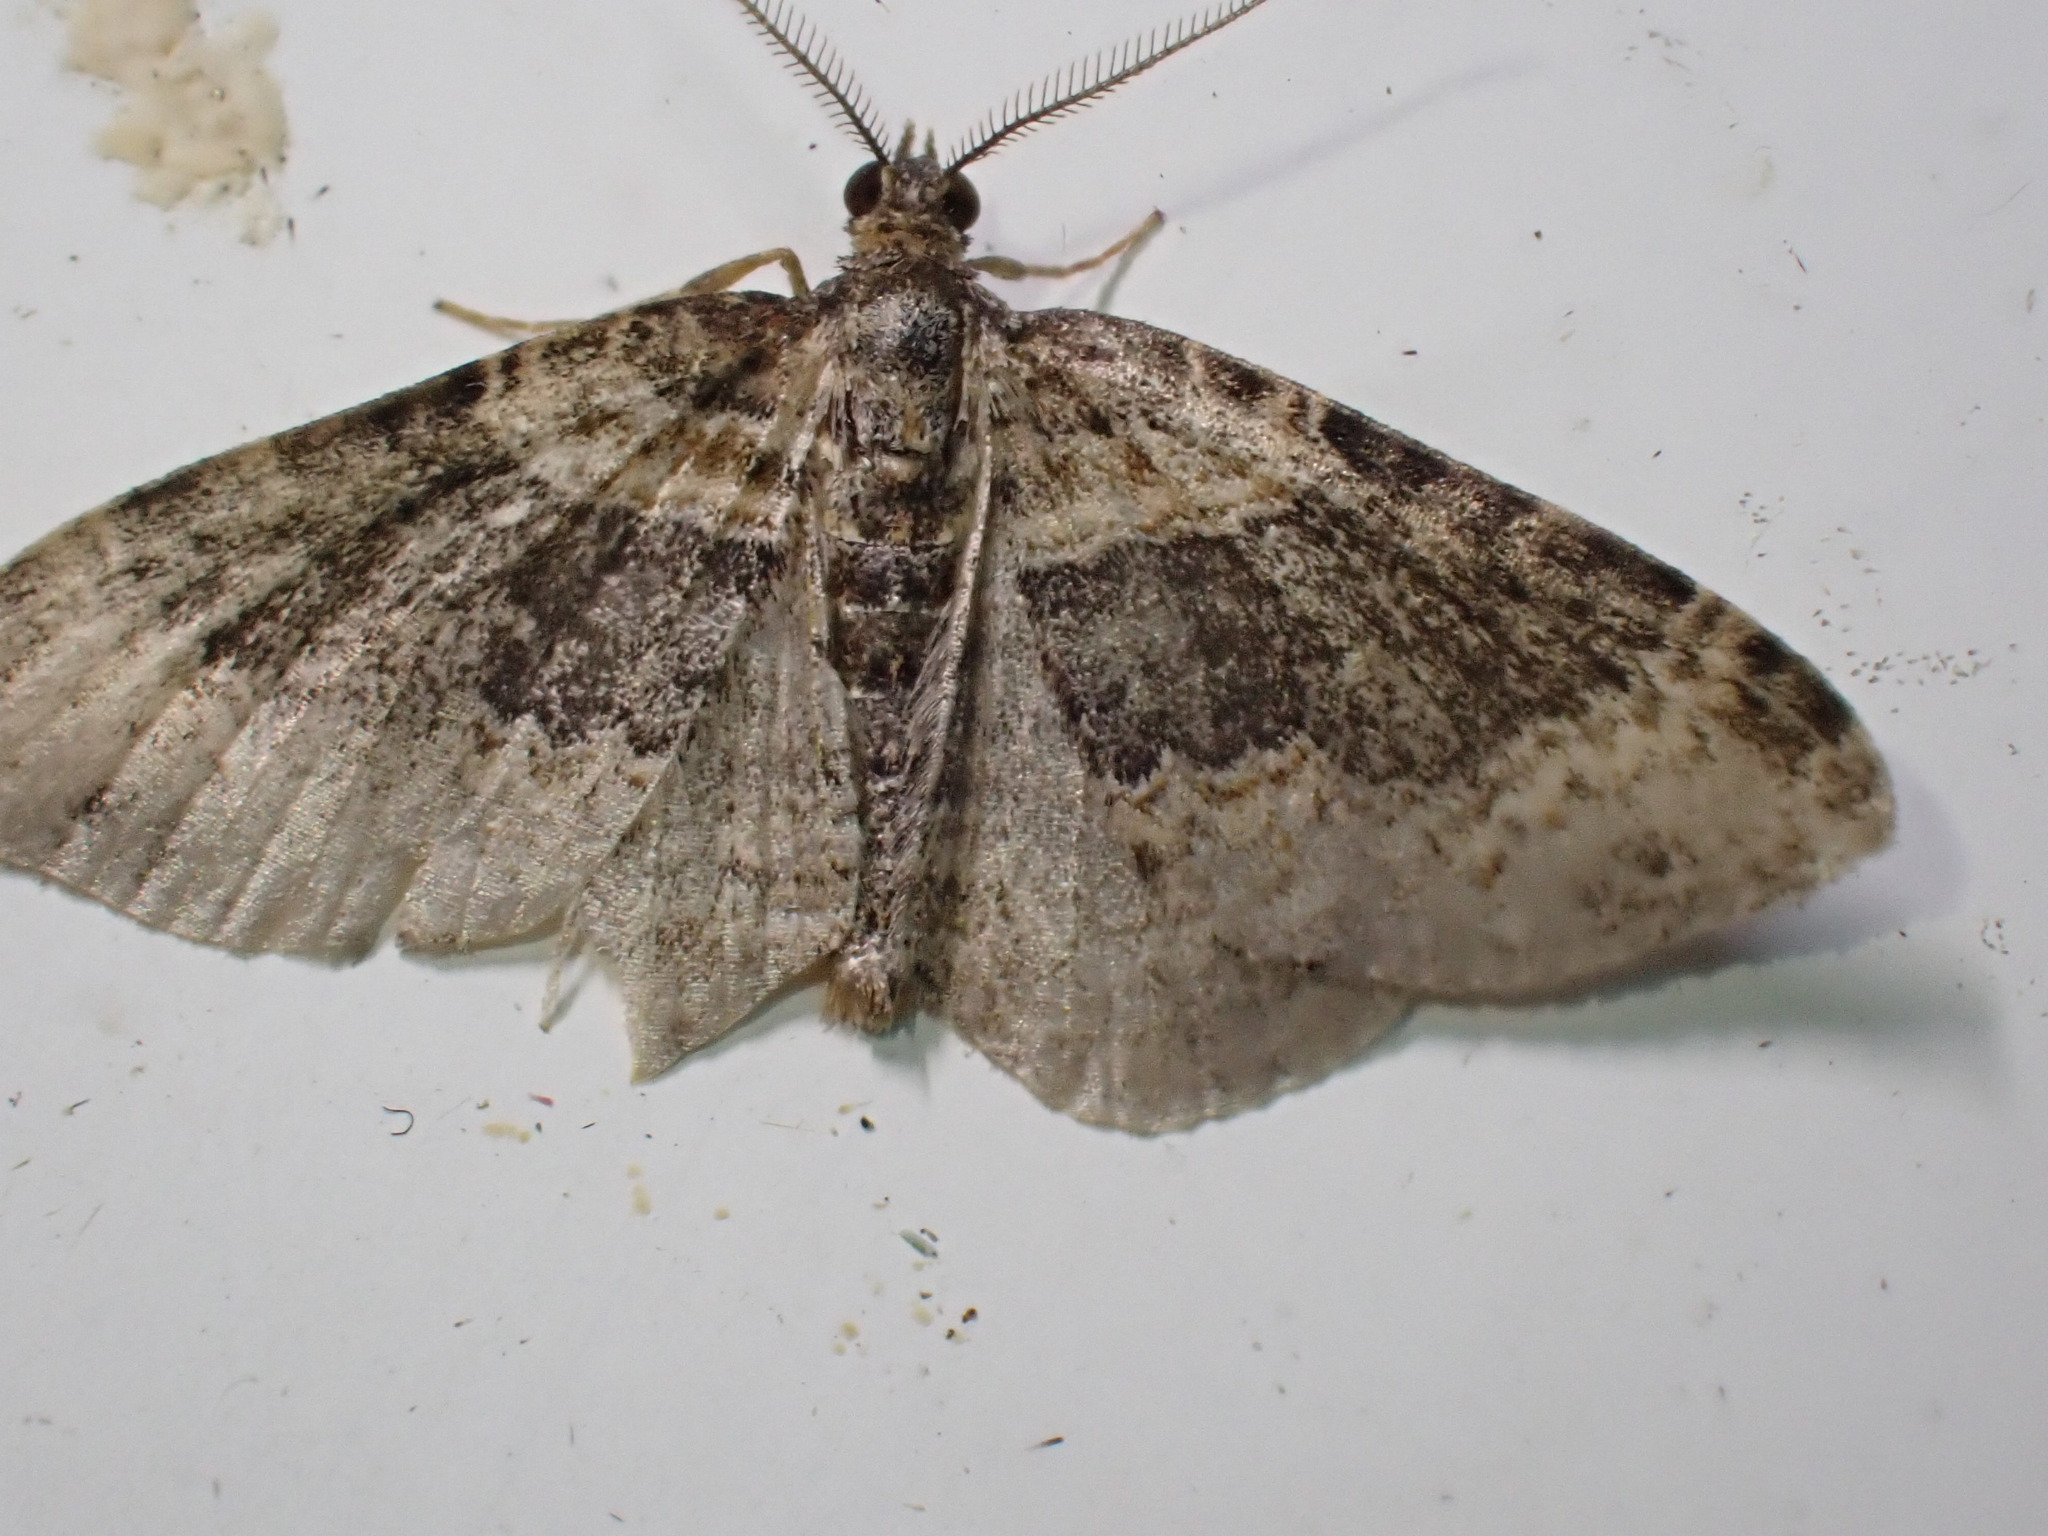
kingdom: Animalia
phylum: Arthropoda
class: Insecta
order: Lepidoptera
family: Geometridae
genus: Xanthorhoe
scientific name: Xanthorhoe ferrugata
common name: Dark-barred twin-spot carpet
